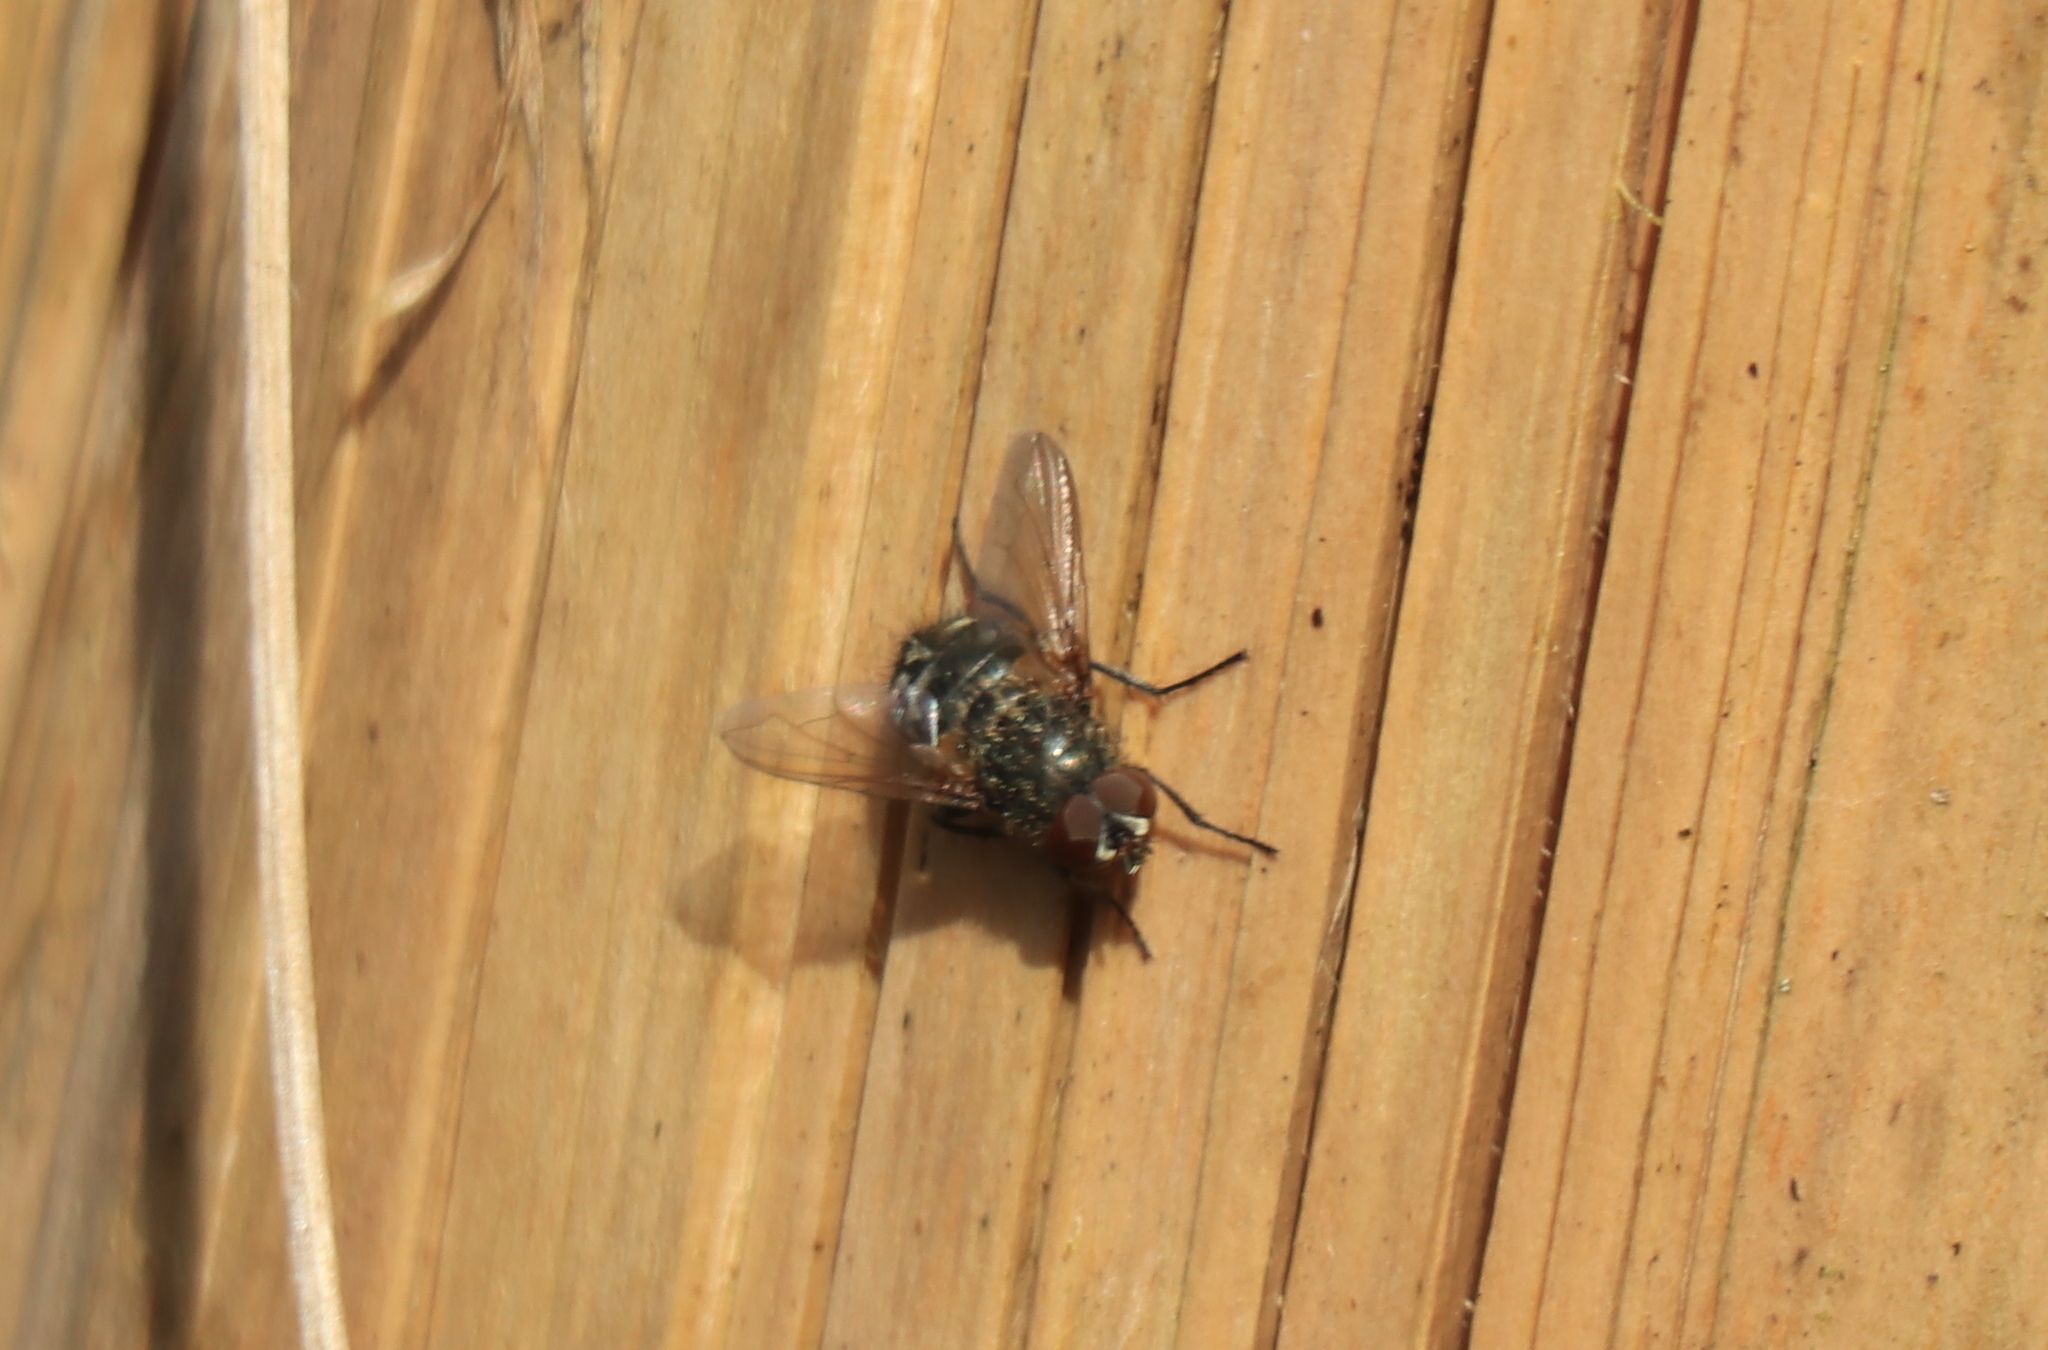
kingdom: Animalia
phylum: Arthropoda
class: Insecta
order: Diptera
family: Polleniidae
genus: Pollenia
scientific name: Pollenia
